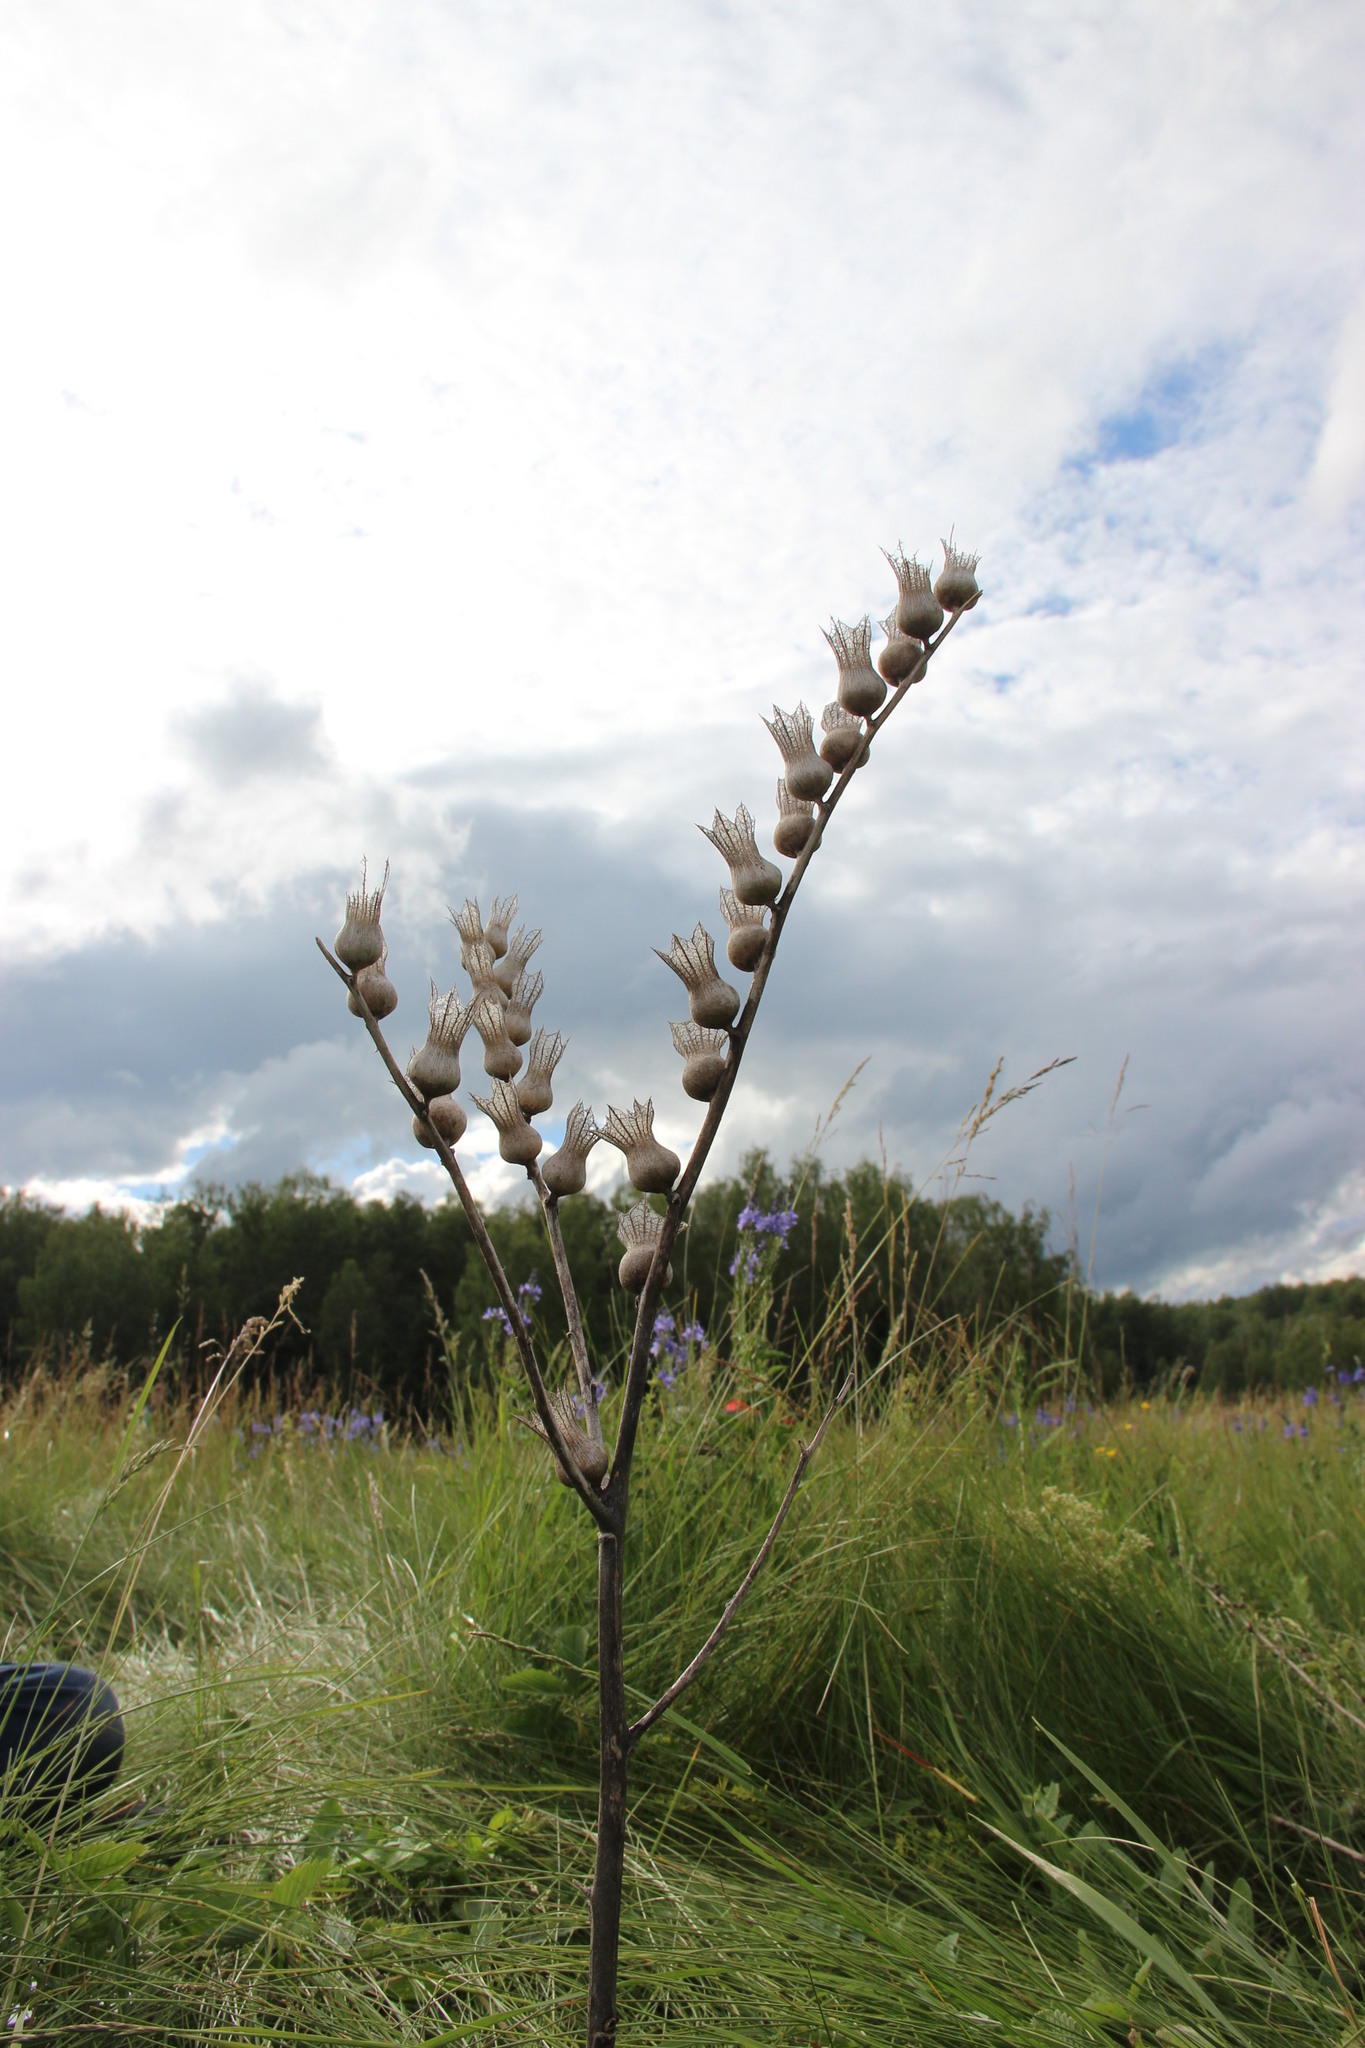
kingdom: Plantae
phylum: Tracheophyta
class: Magnoliopsida
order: Solanales
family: Solanaceae
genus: Hyoscyamus
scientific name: Hyoscyamus niger
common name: Henbane
